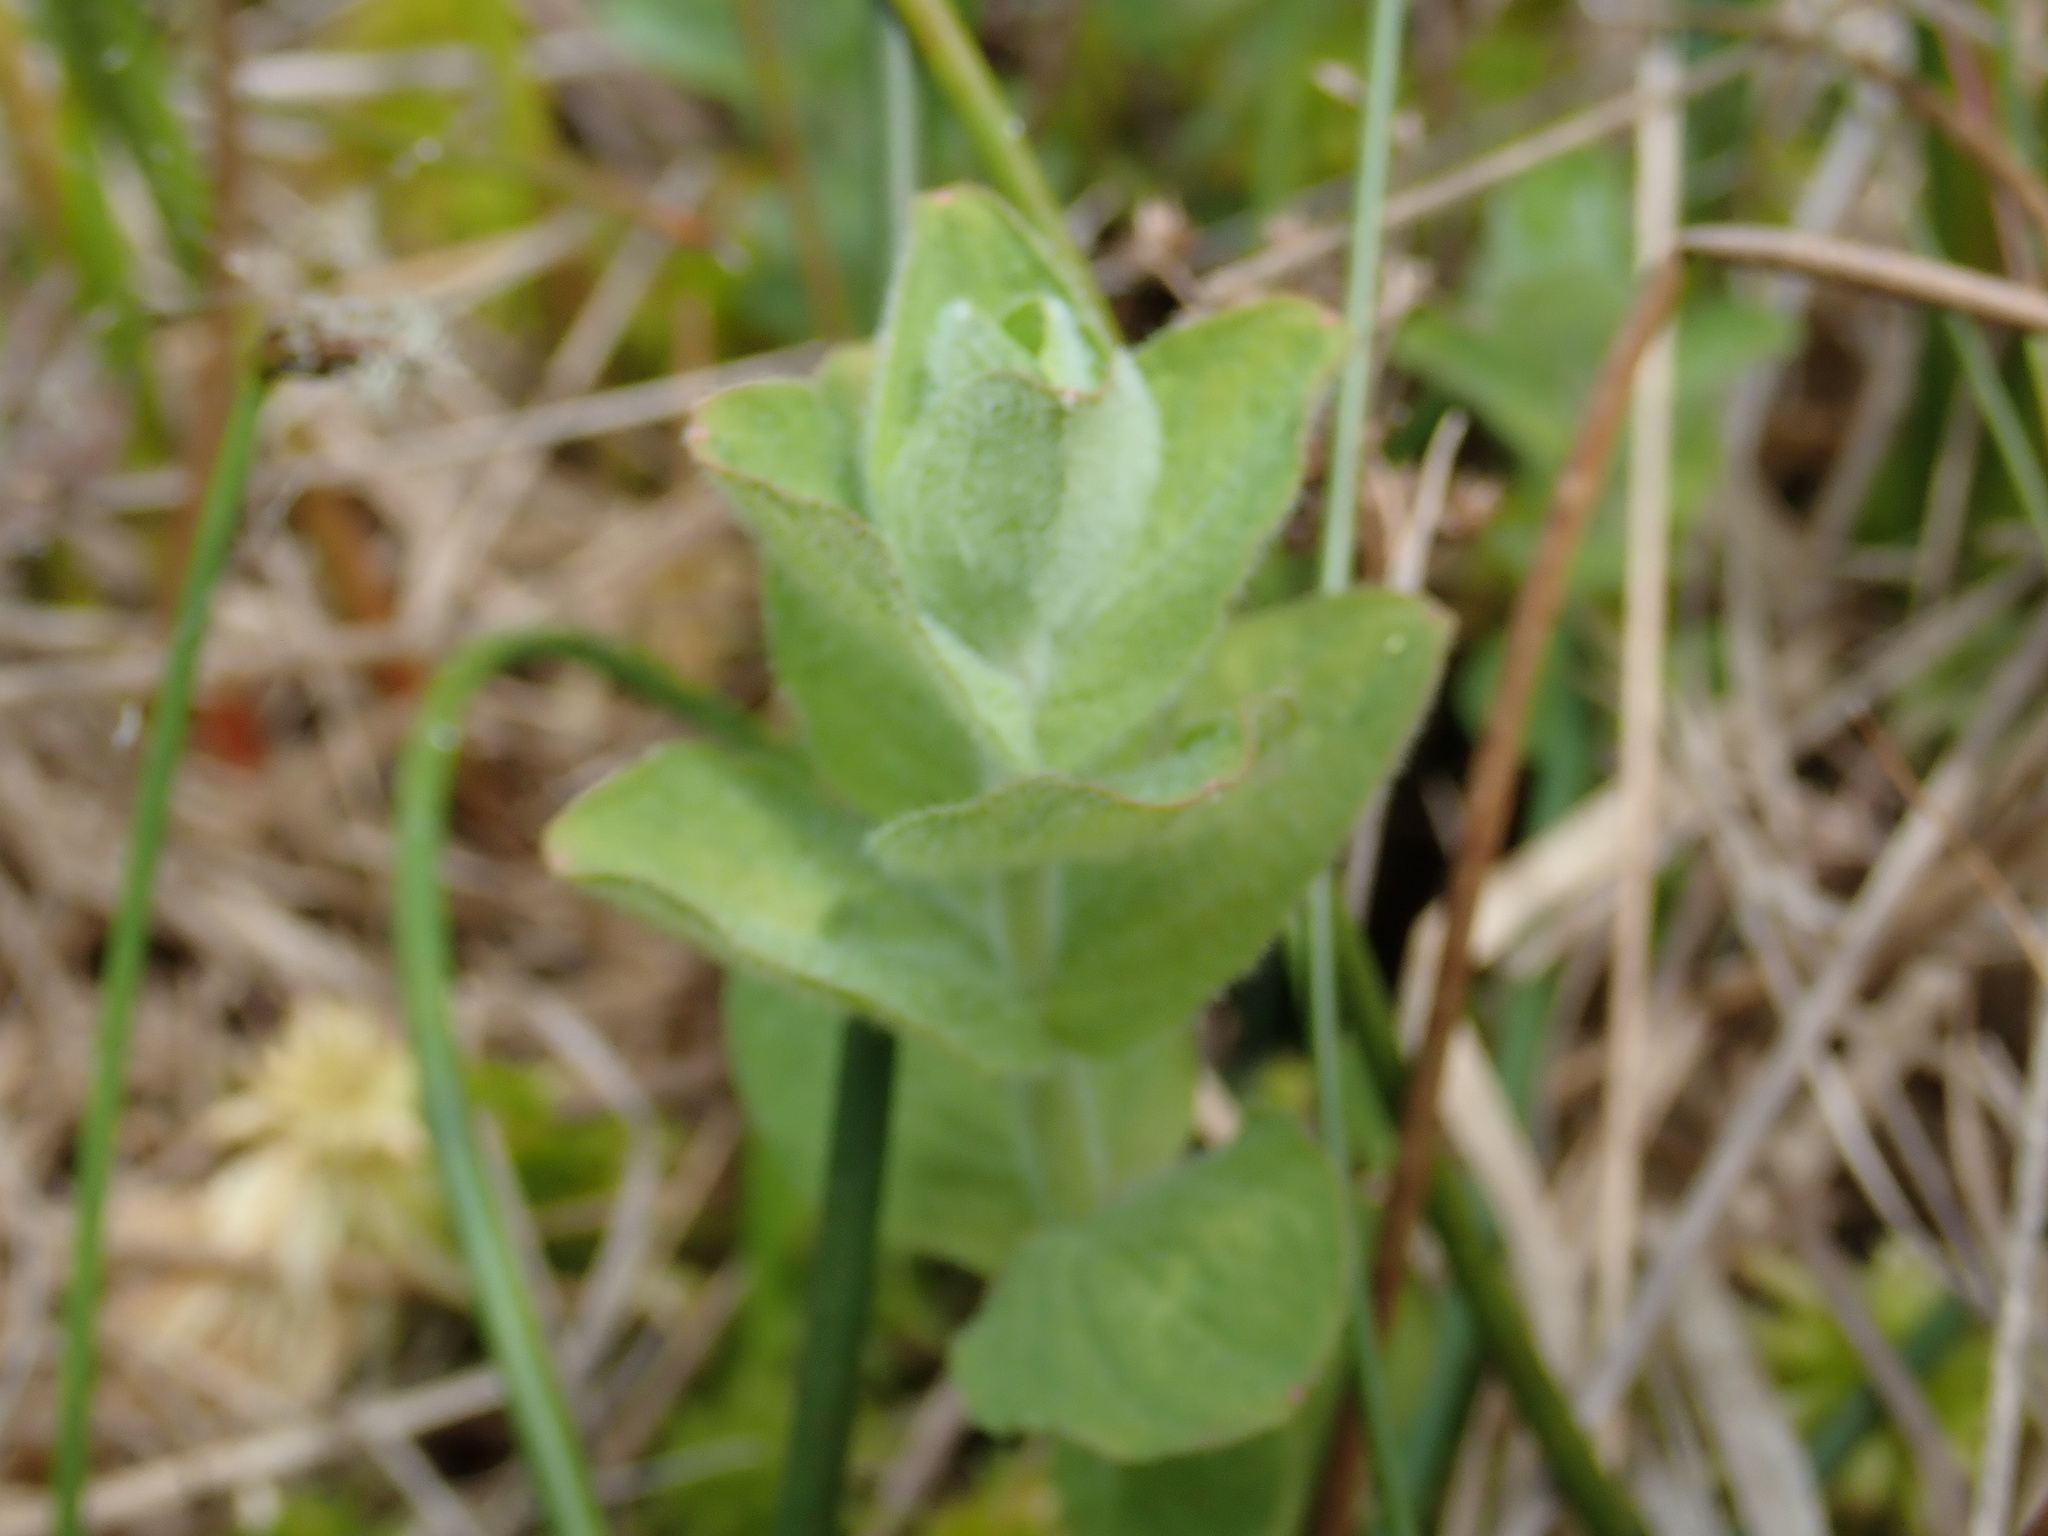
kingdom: Plantae
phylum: Tracheophyta
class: Magnoliopsida
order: Malpighiales
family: Hypericaceae
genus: Hypericum
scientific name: Hypericum elodes
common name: Marsh st. john's-wort
